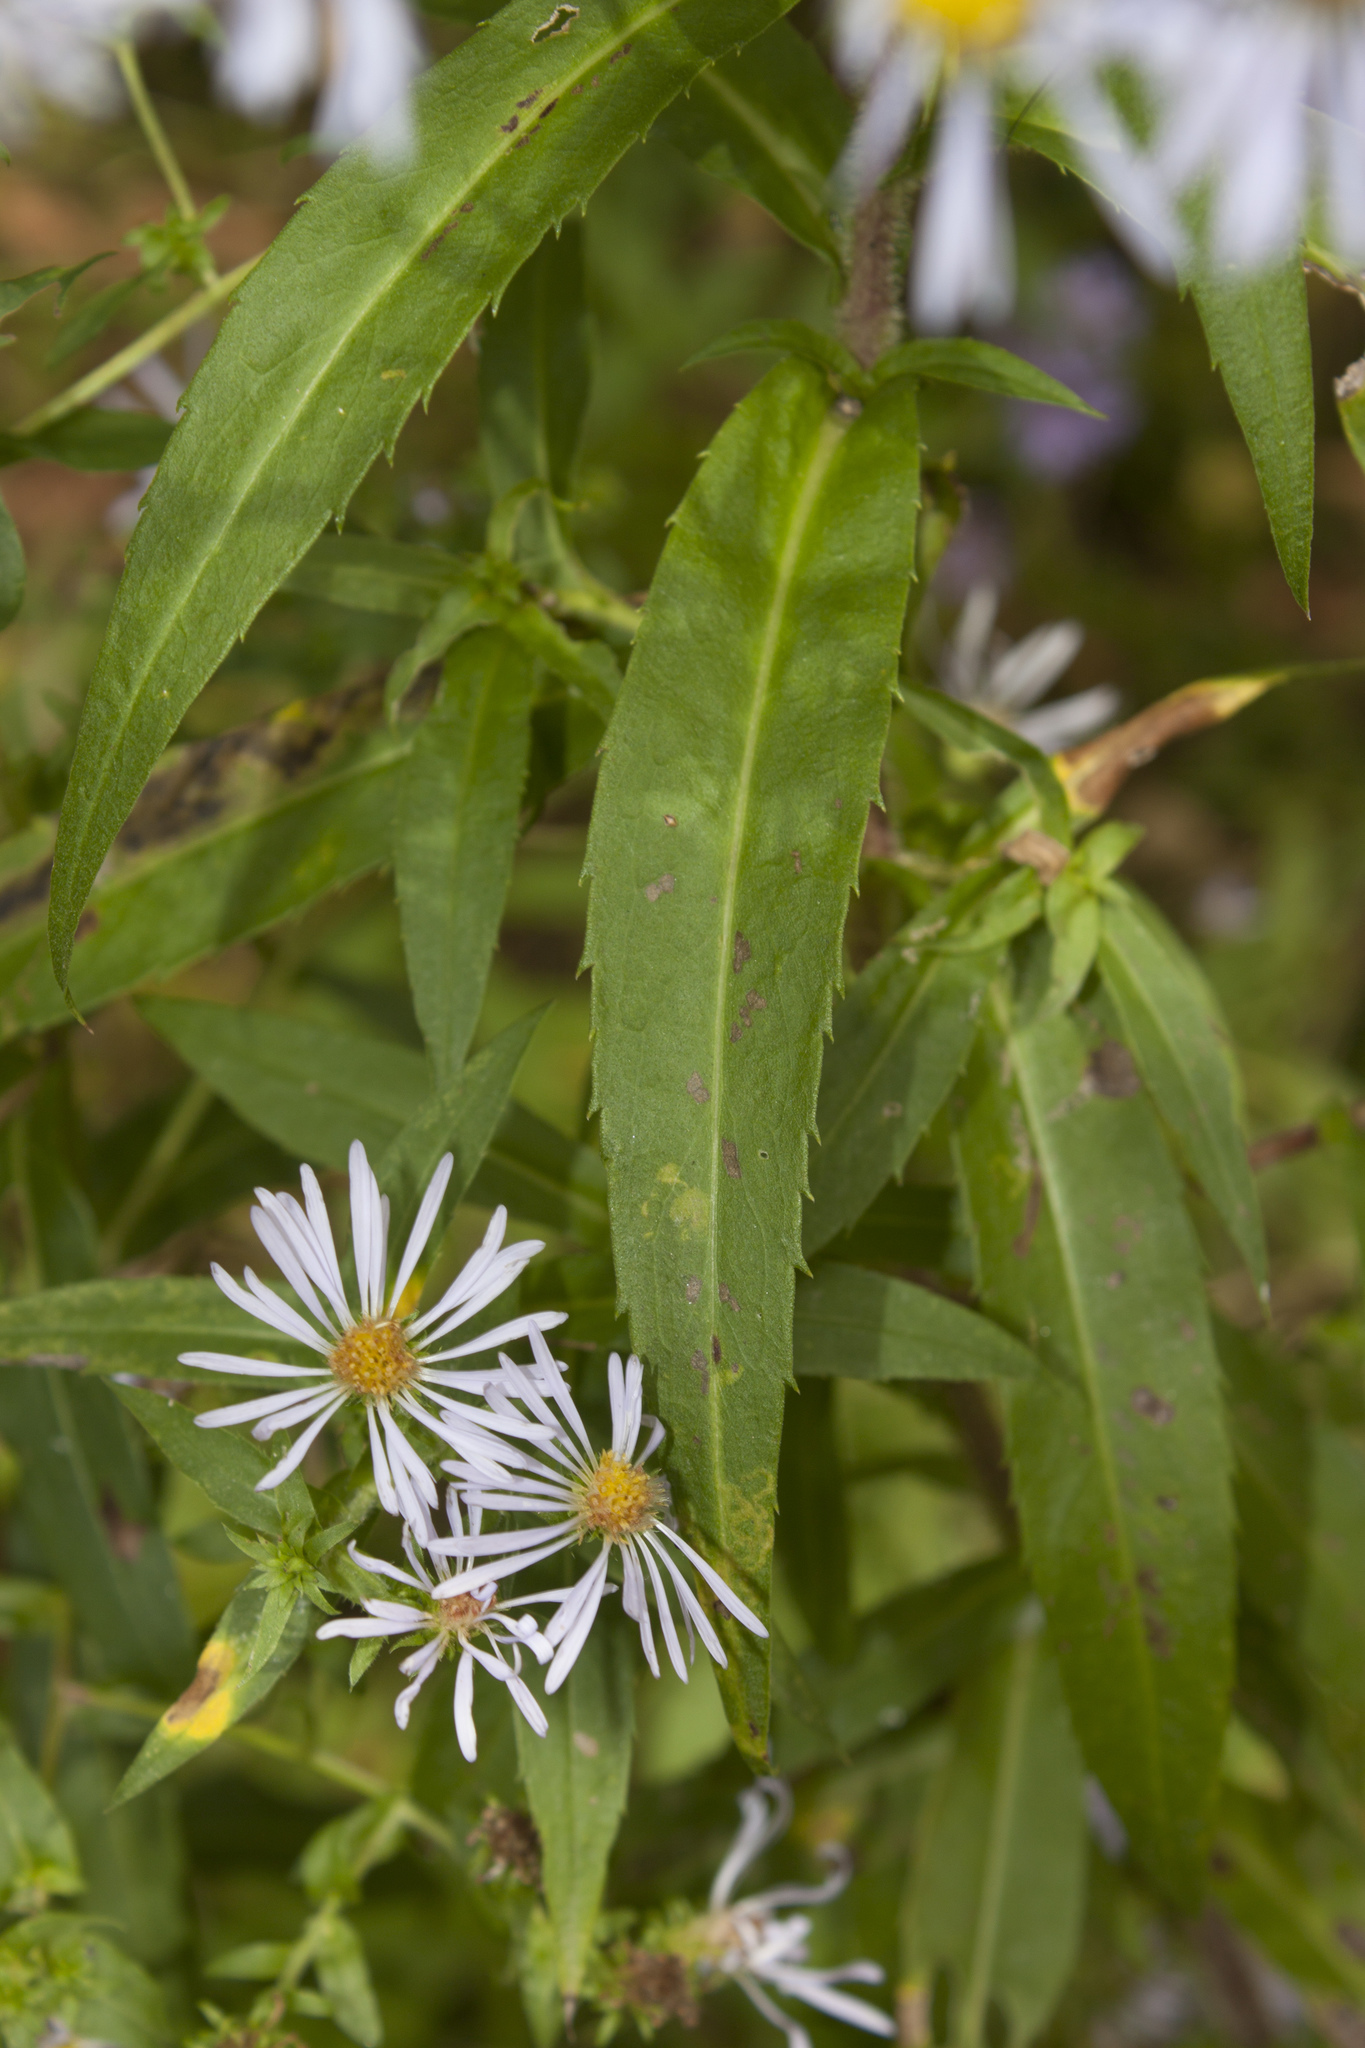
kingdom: Plantae
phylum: Tracheophyta
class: Magnoliopsida
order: Asterales
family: Asteraceae
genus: Symphyotrichum
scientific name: Symphyotrichum puniceum
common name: Bog aster
